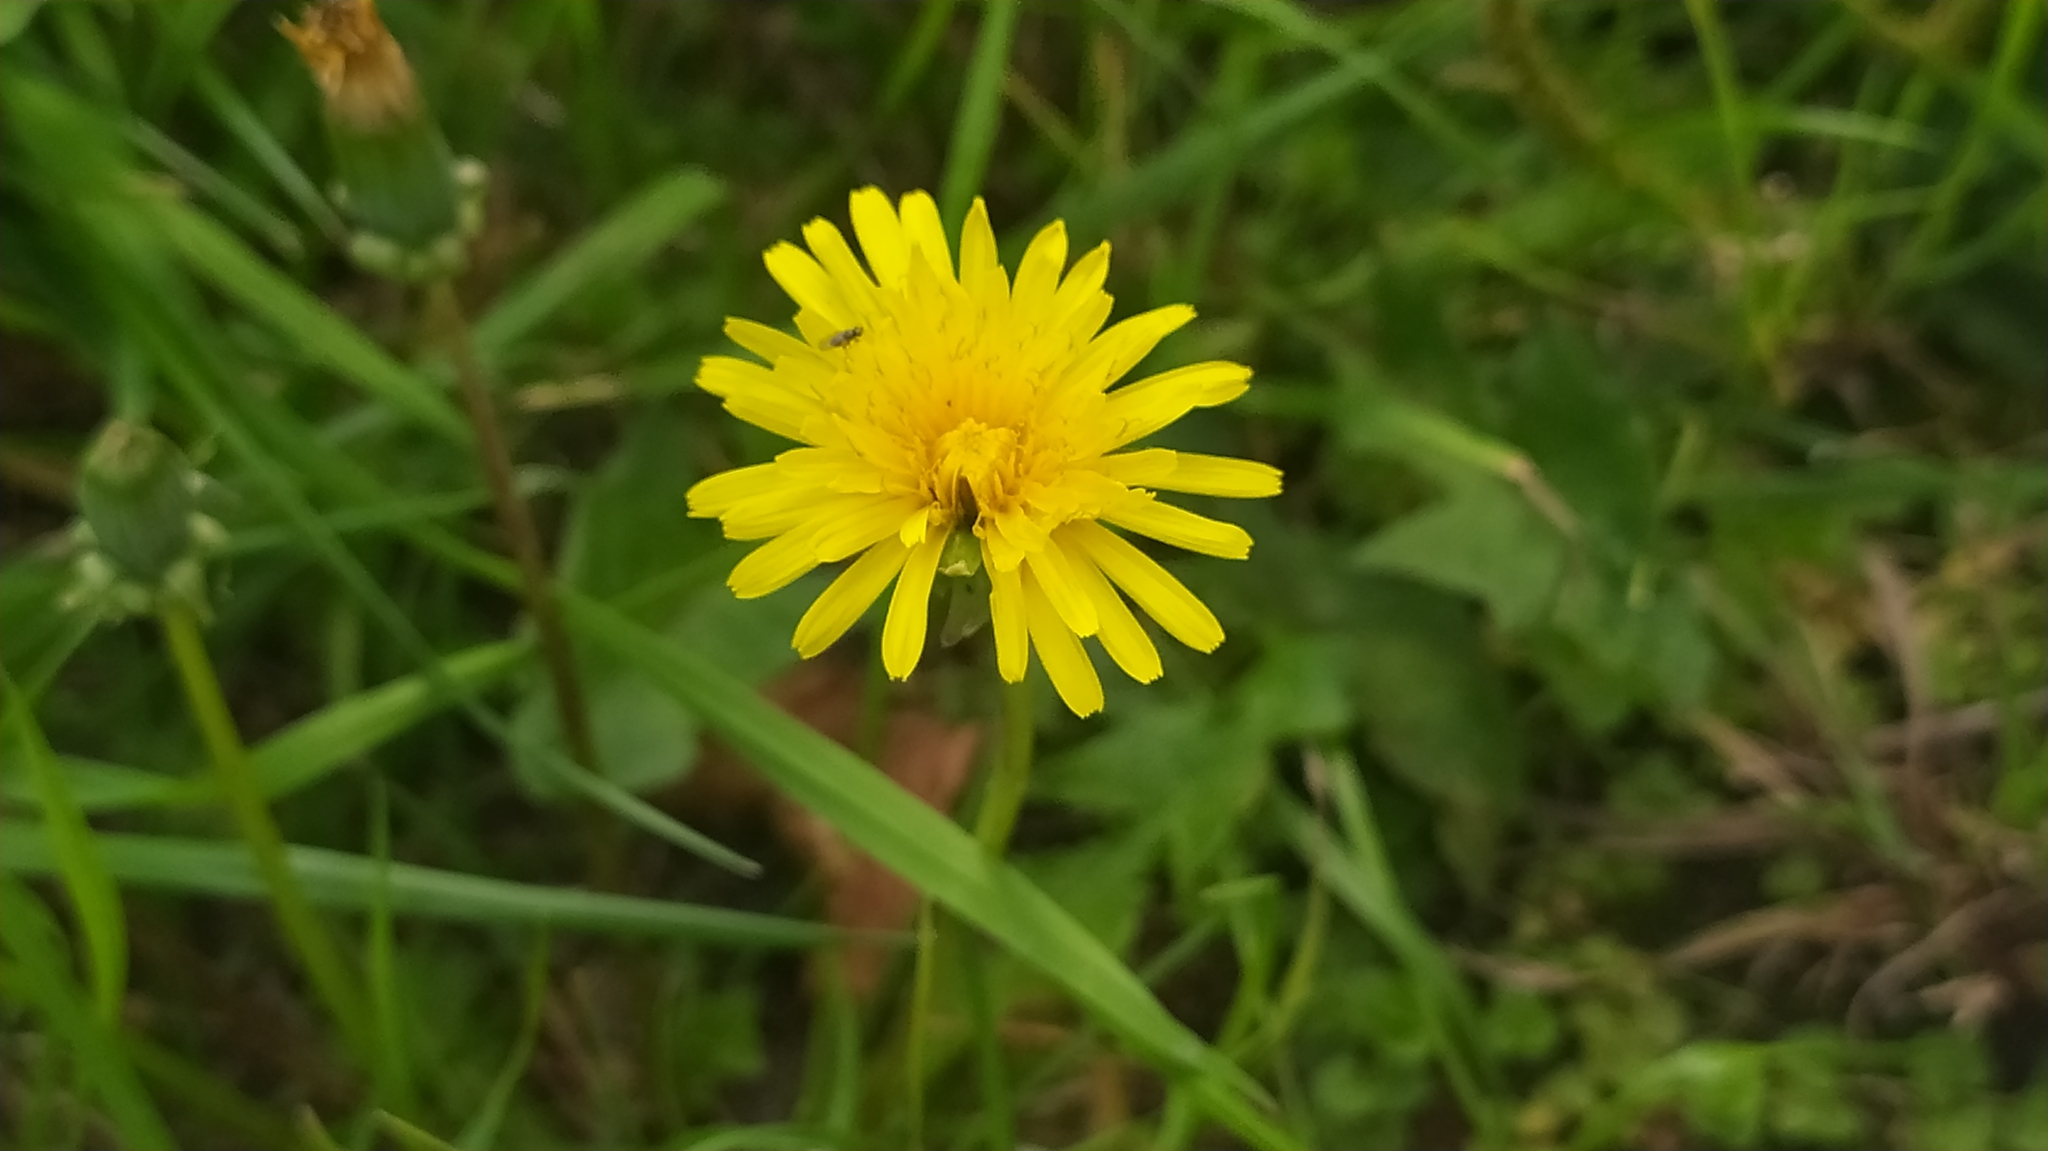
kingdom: Plantae
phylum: Tracheophyta
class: Magnoliopsida
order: Asterales
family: Asteraceae
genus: Taraxacum
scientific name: Taraxacum officinale
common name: Common dandelion
